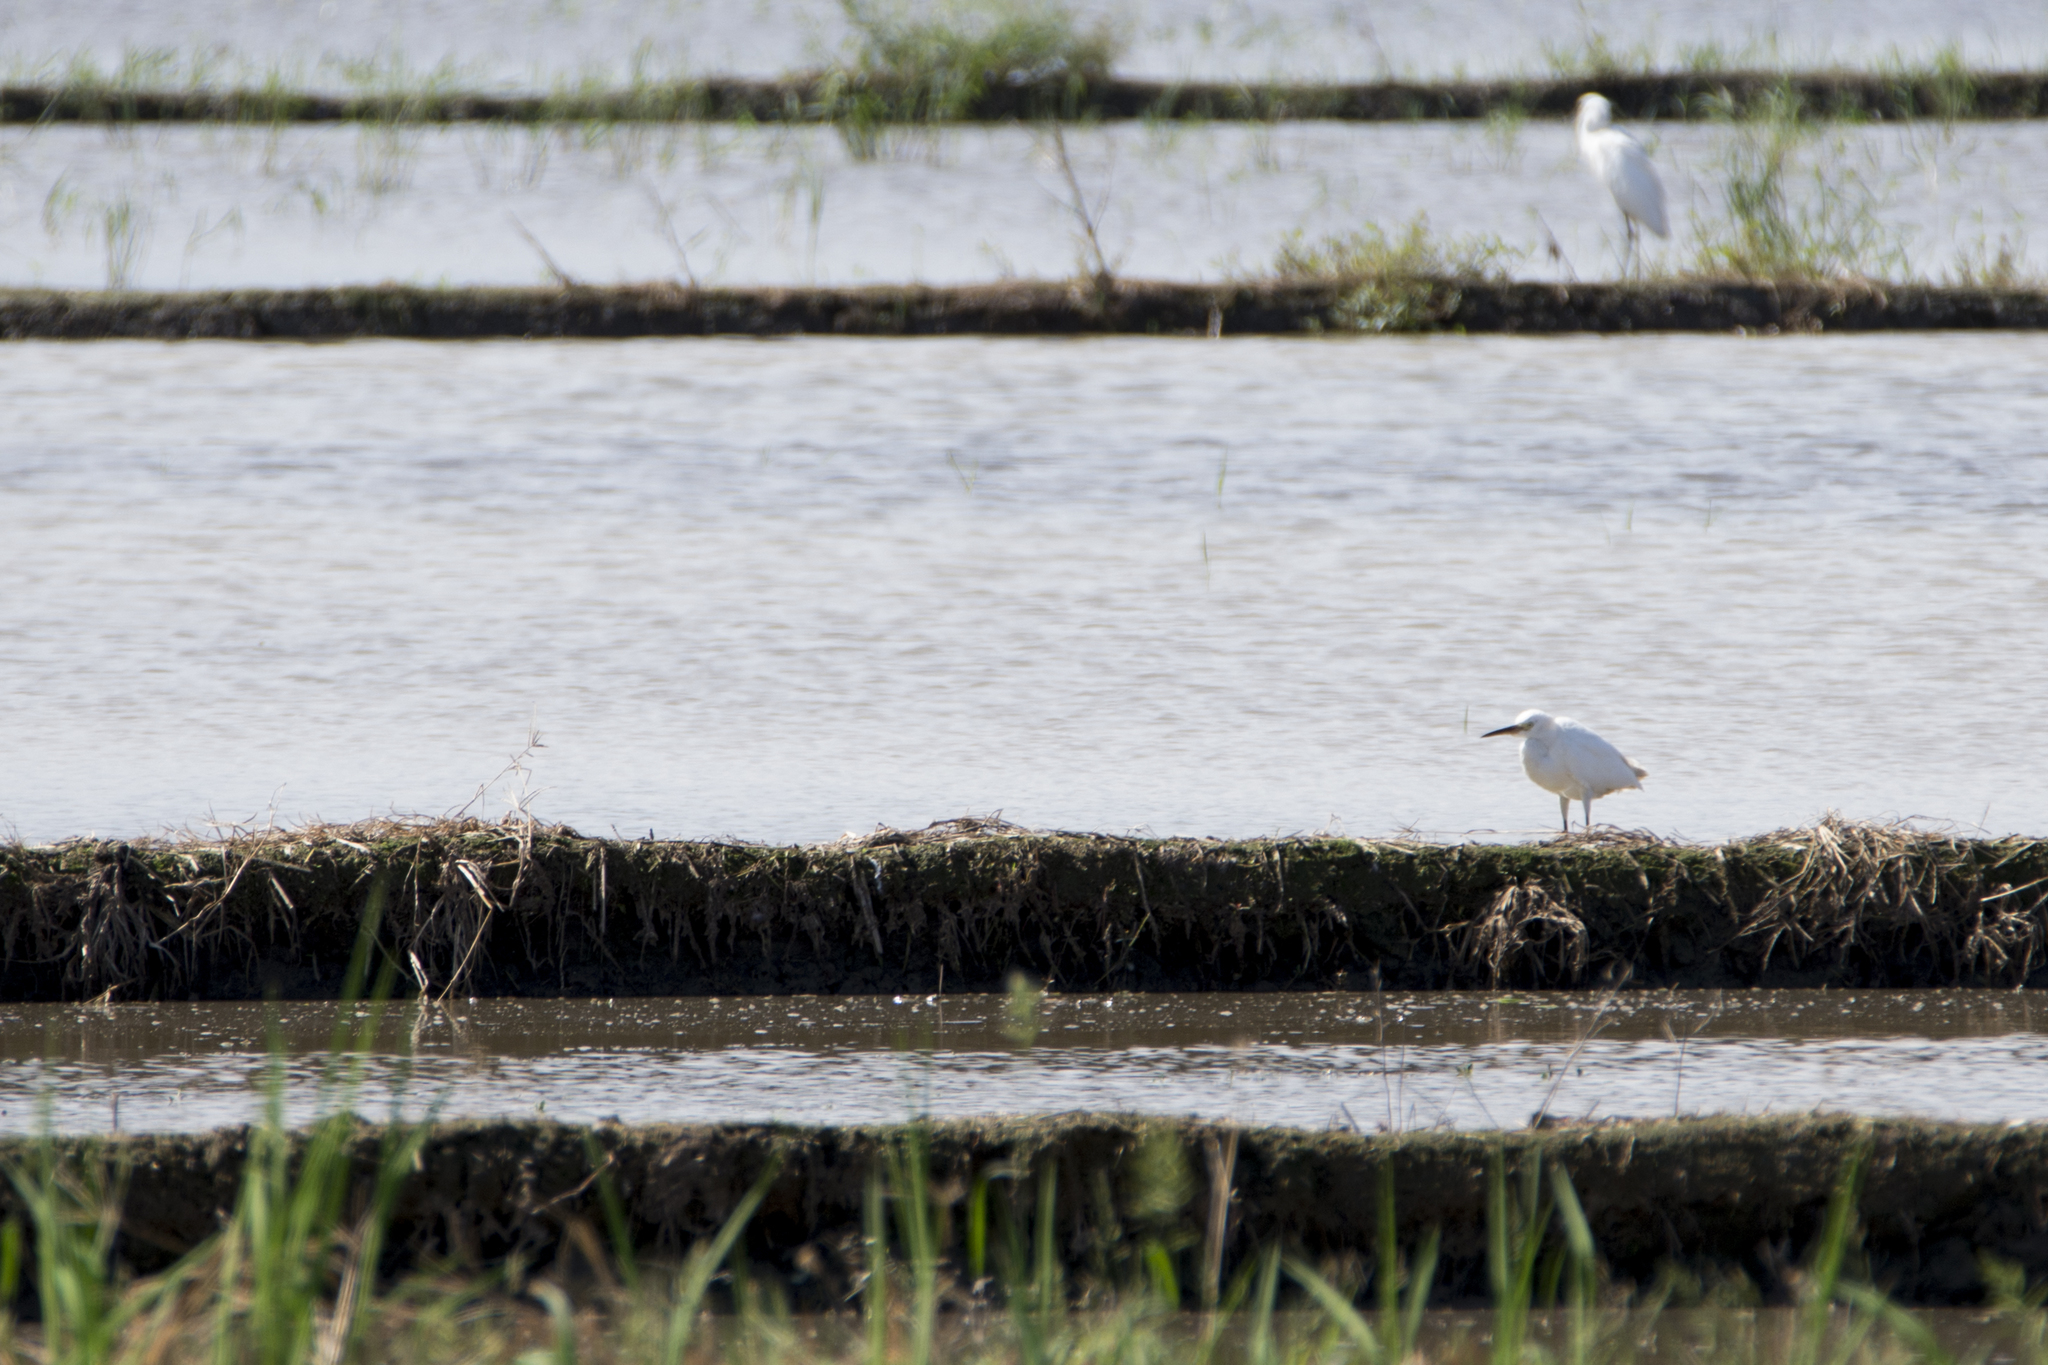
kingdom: Animalia
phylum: Chordata
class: Aves
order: Pelecaniformes
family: Ardeidae
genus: Egretta
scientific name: Egretta garzetta
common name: Little egret
